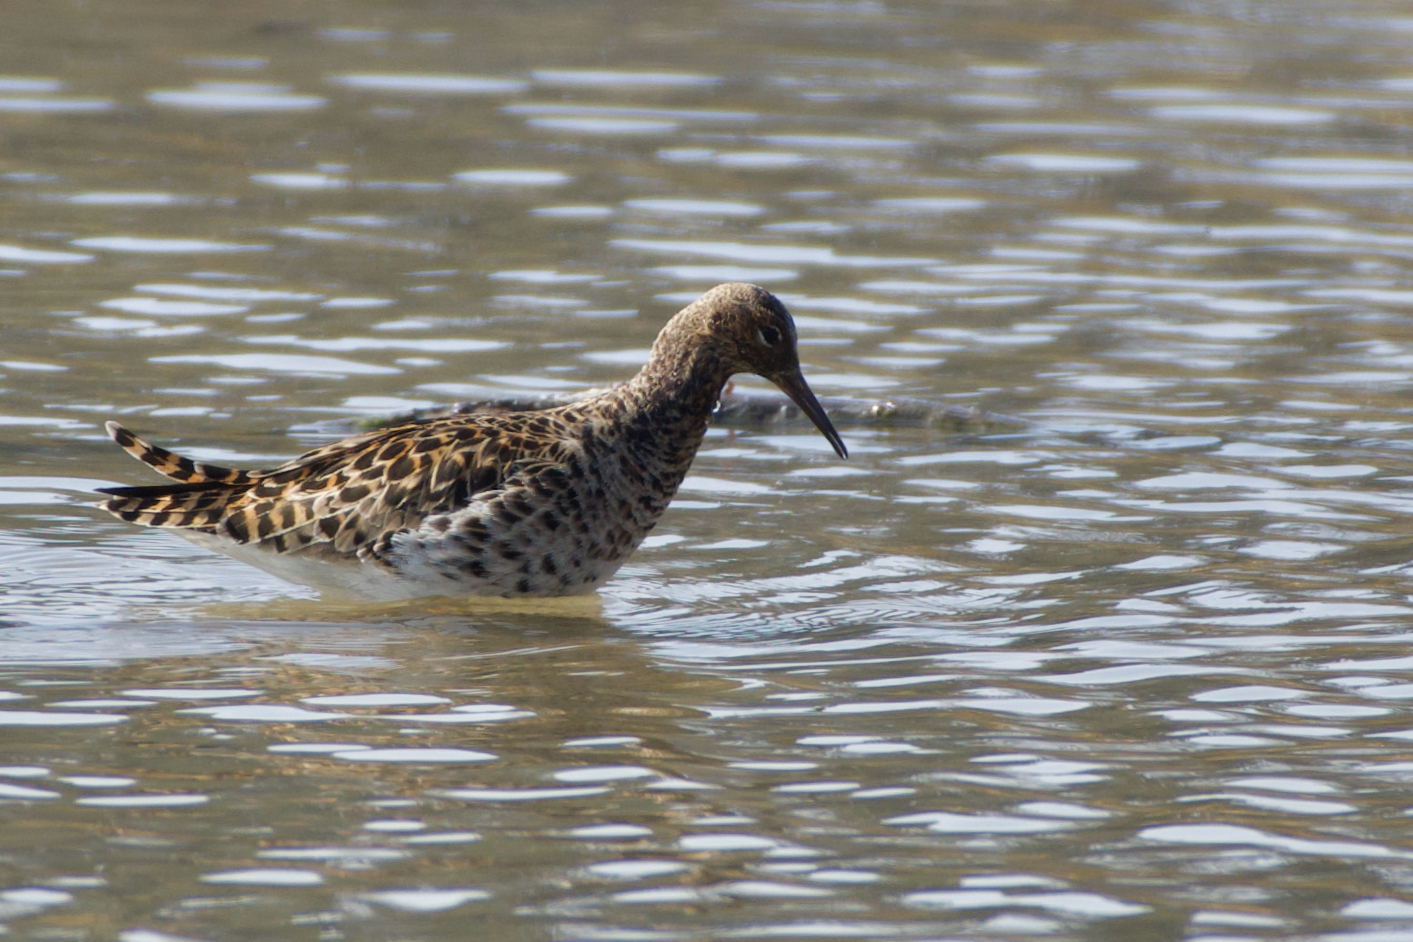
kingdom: Animalia
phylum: Chordata
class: Aves
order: Charadriiformes
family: Scolopacidae
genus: Calidris
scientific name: Calidris pugnax
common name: Ruff
